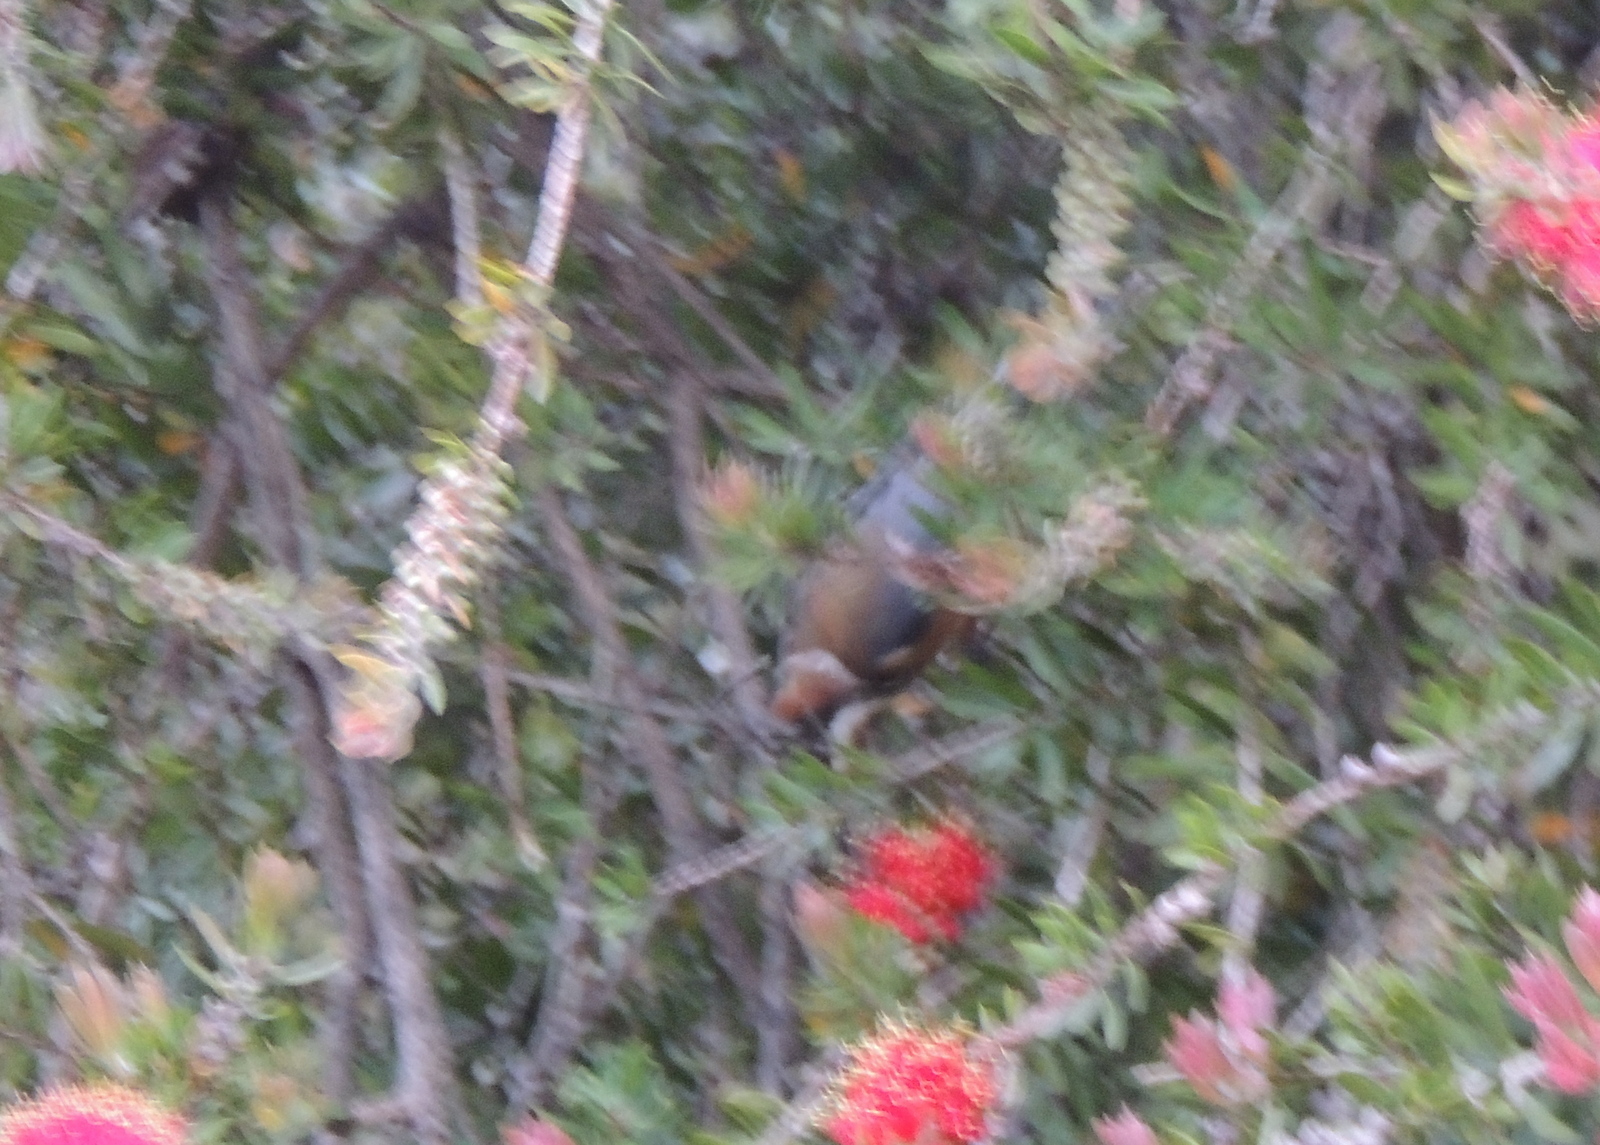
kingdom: Animalia
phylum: Chordata
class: Aves
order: Passeriformes
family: Meliphagidae
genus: Acanthorhynchus
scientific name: Acanthorhynchus tenuirostris
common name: Eastern spinebill
